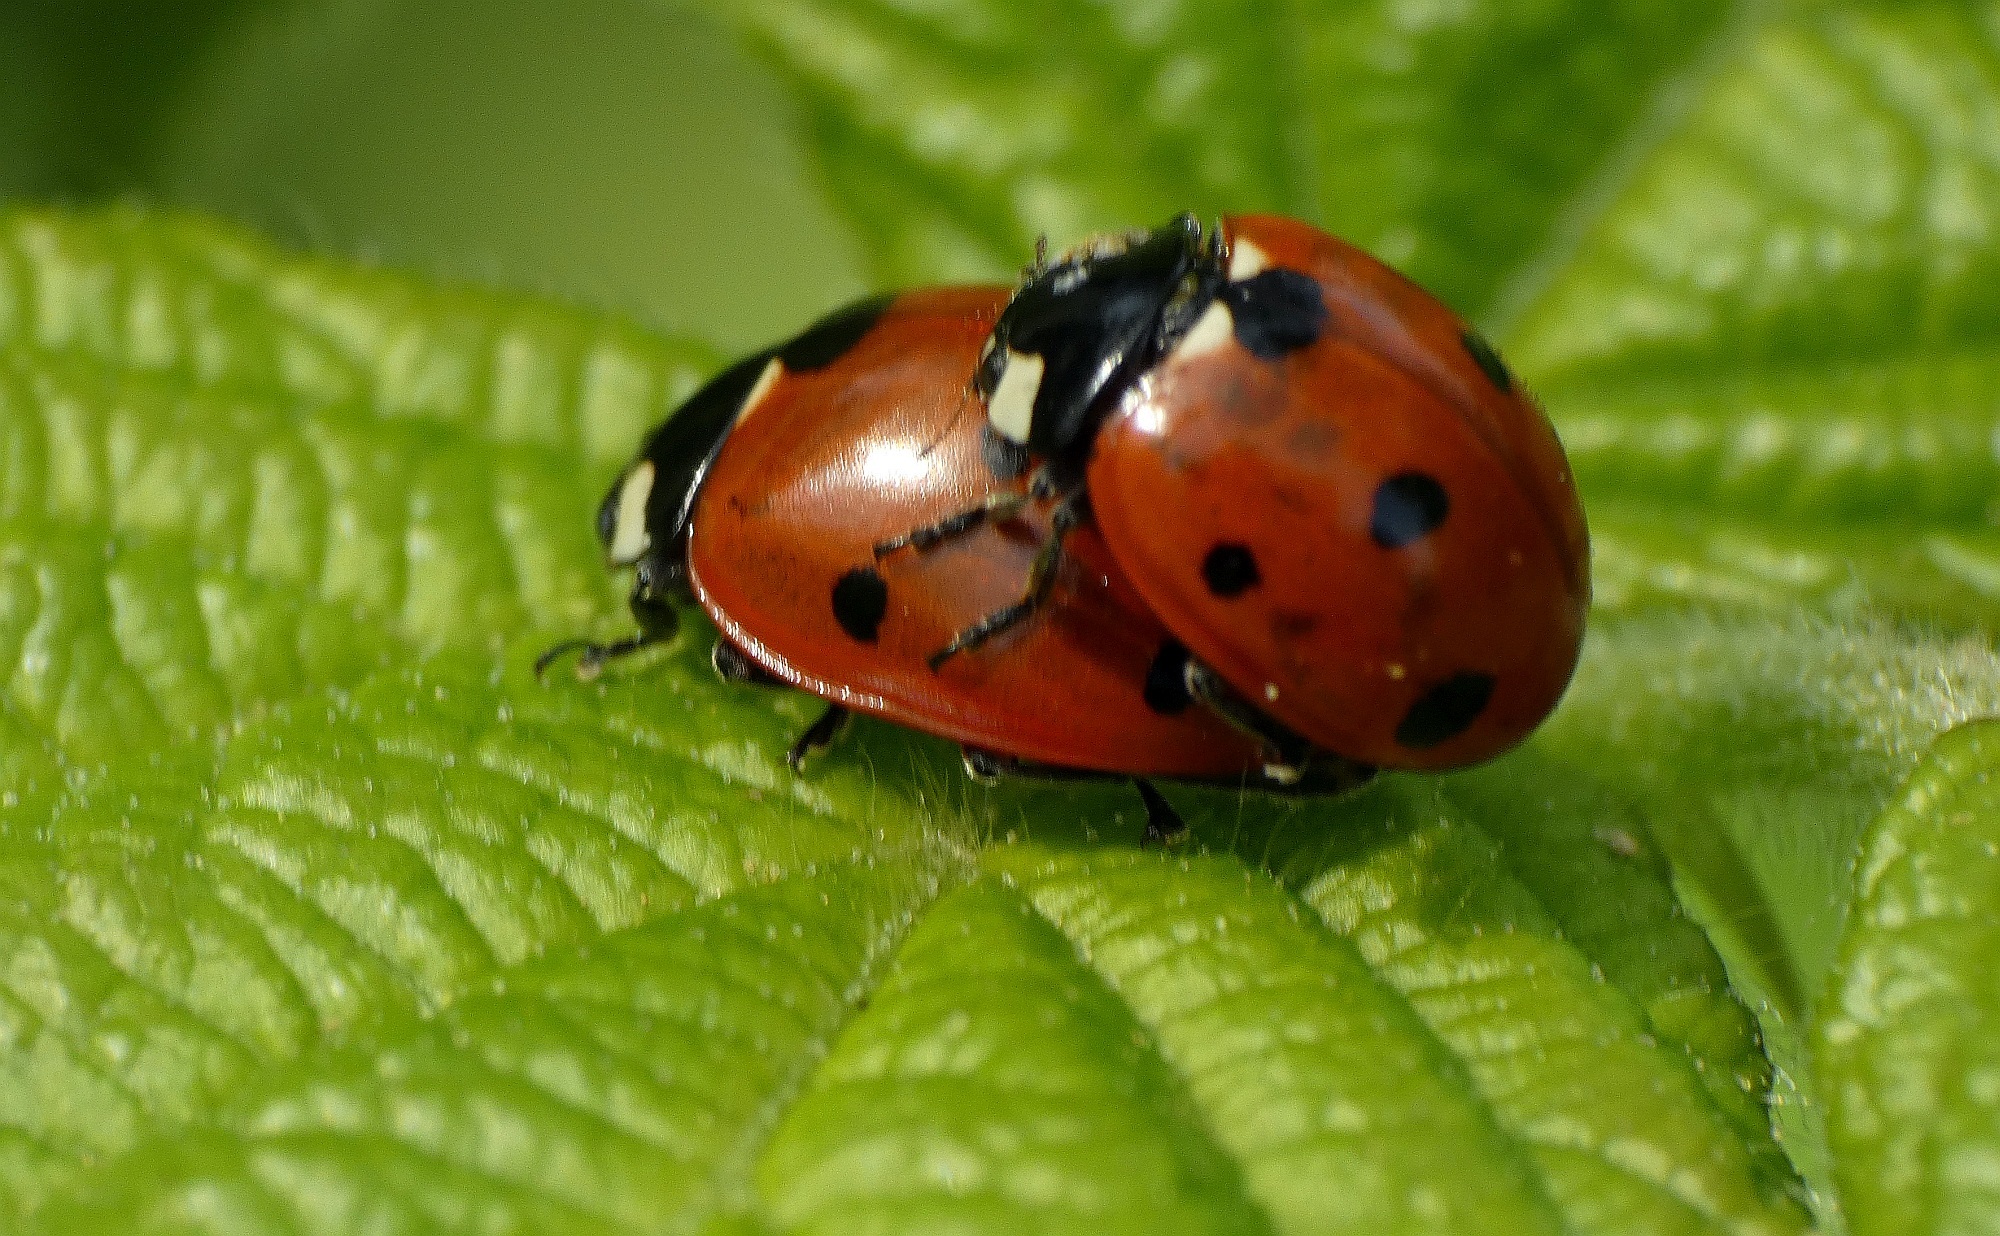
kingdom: Animalia
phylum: Arthropoda
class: Insecta
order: Coleoptera
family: Coccinellidae
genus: Coccinella
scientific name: Coccinella septempunctata
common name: Sevenspotted lady beetle
